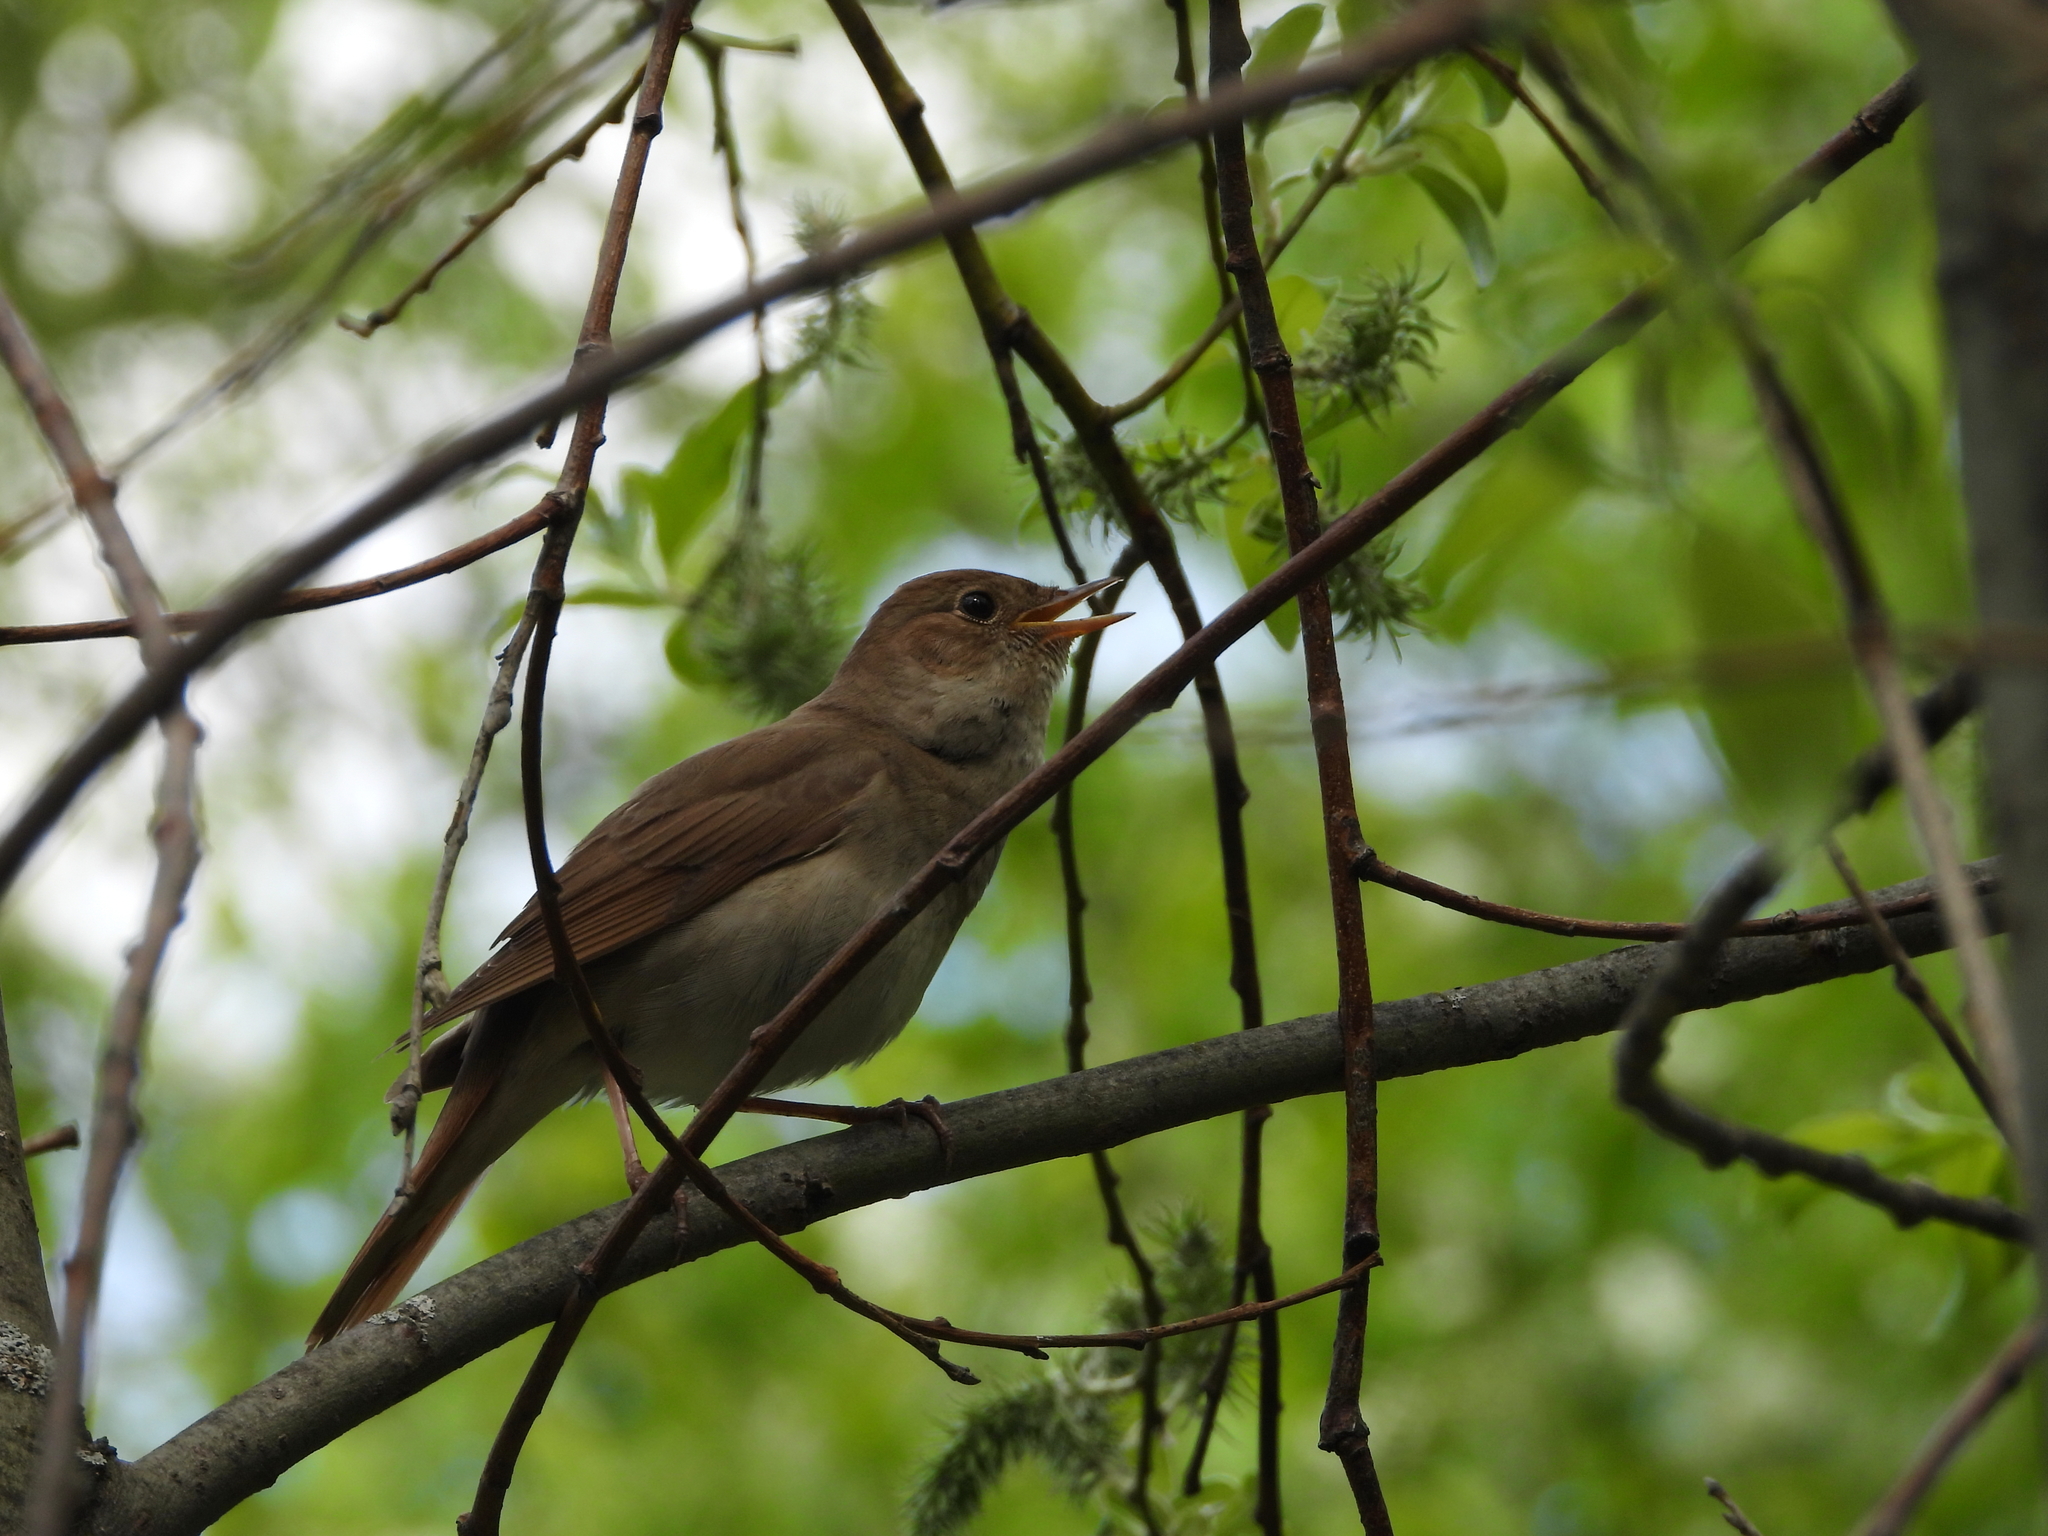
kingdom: Animalia
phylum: Chordata
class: Aves
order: Passeriformes
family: Muscicapidae
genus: Luscinia
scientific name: Luscinia luscinia
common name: Thrush nightingale
